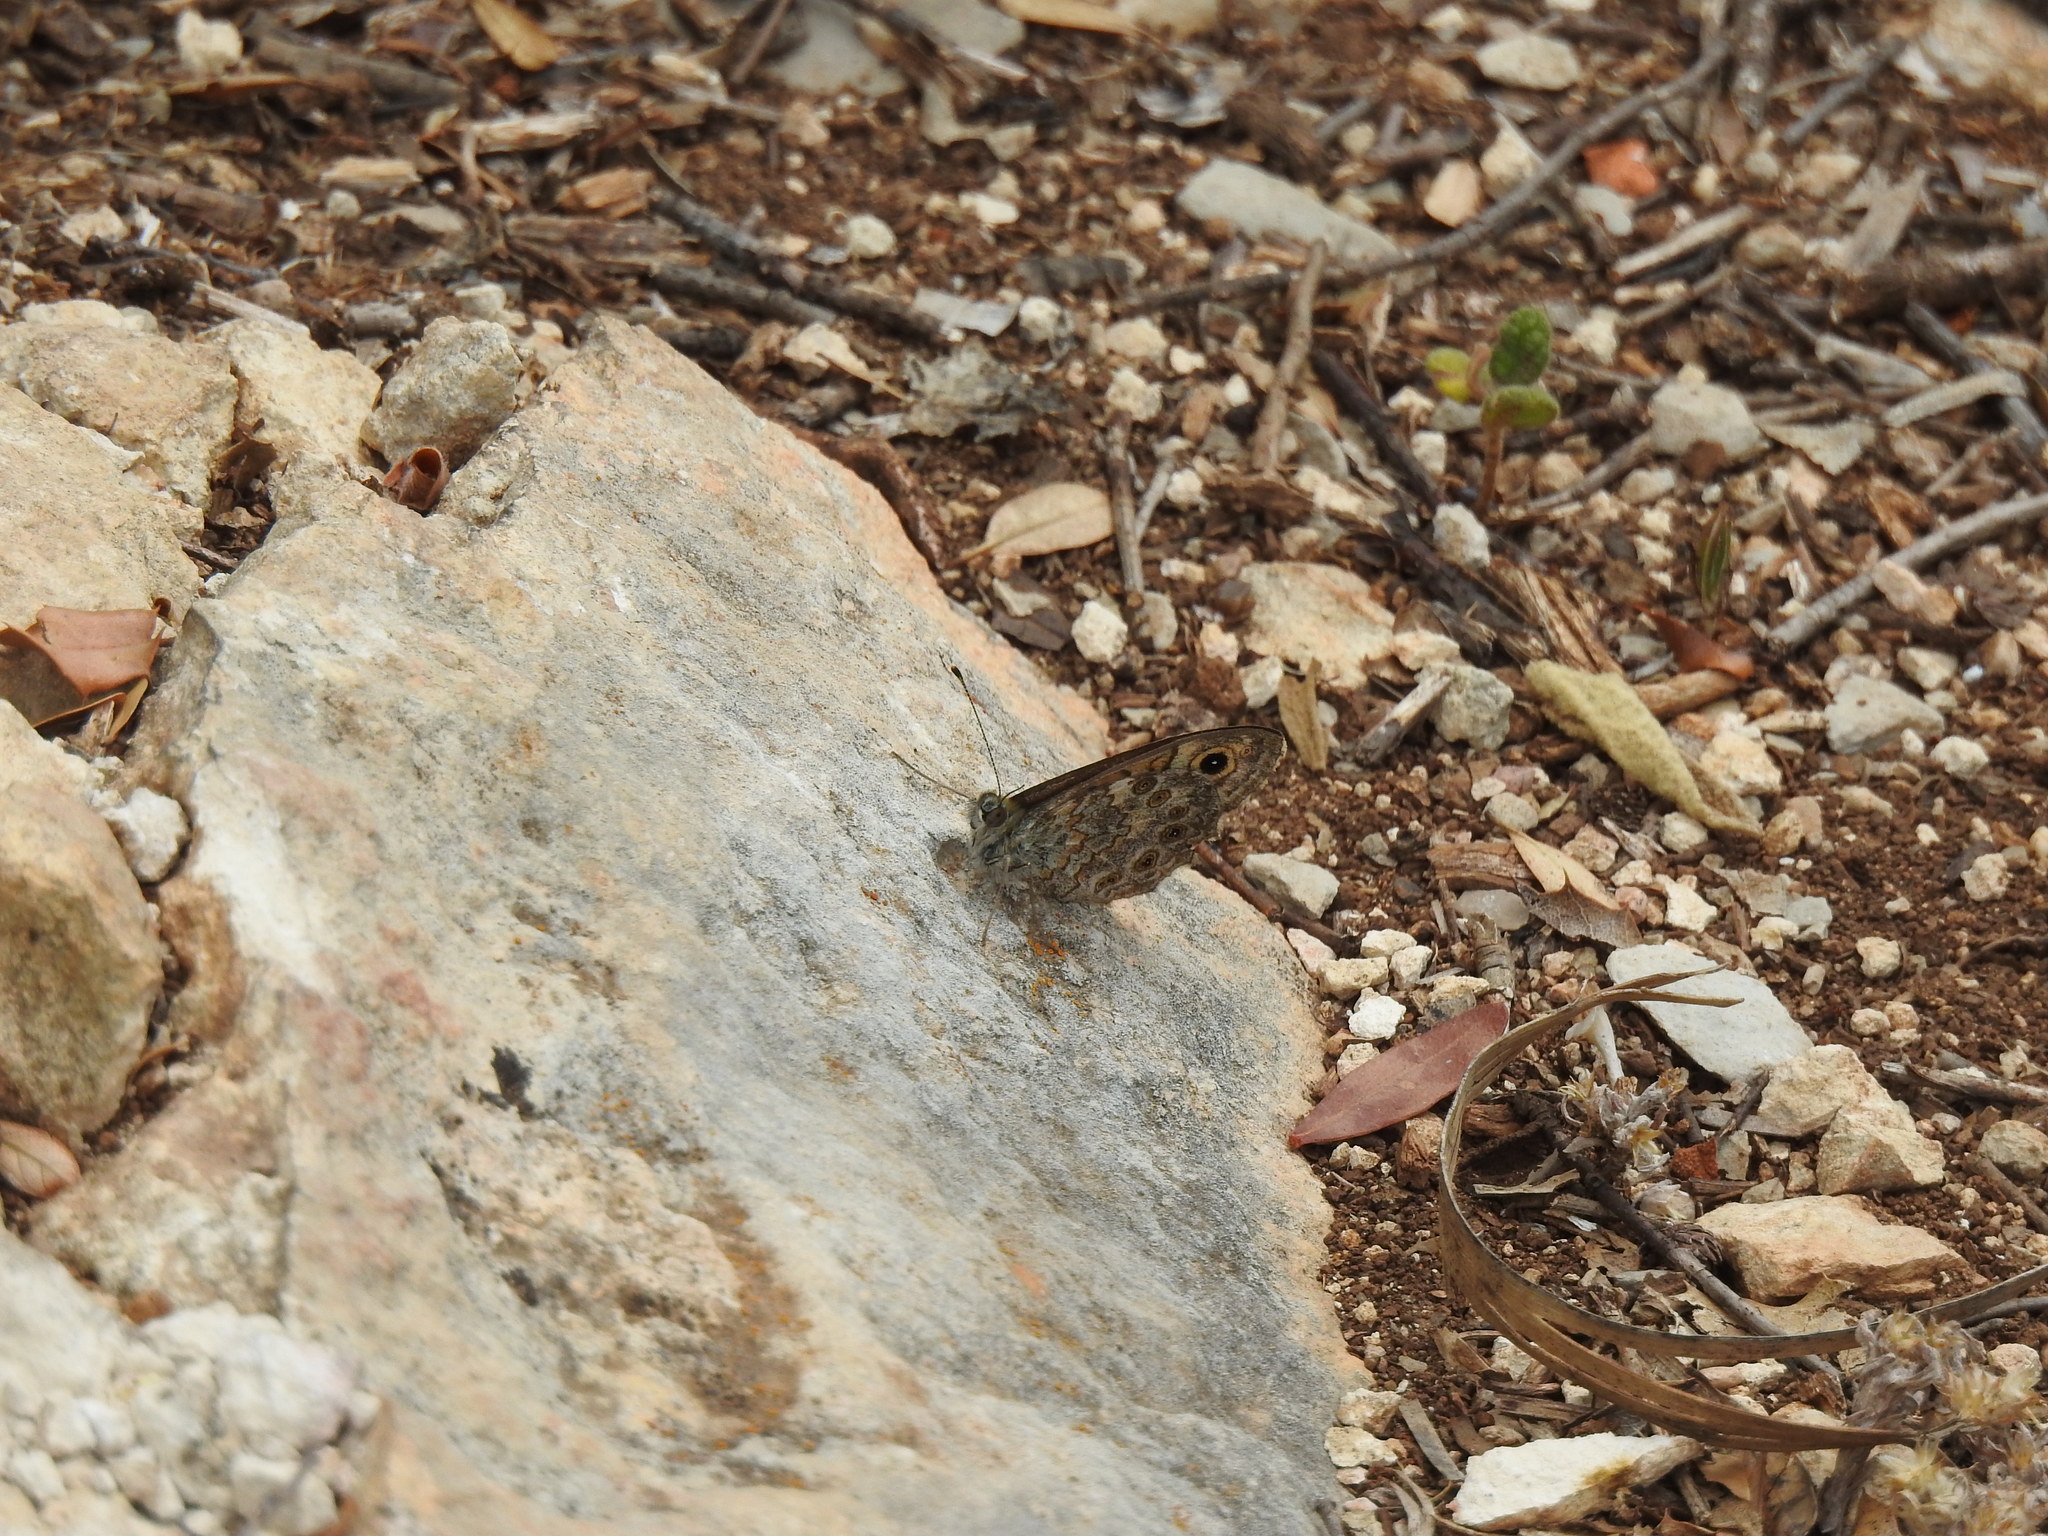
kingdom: Animalia
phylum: Arthropoda
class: Insecta
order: Lepidoptera
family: Nymphalidae
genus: Pararge
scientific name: Pararge Lasiommata megera
